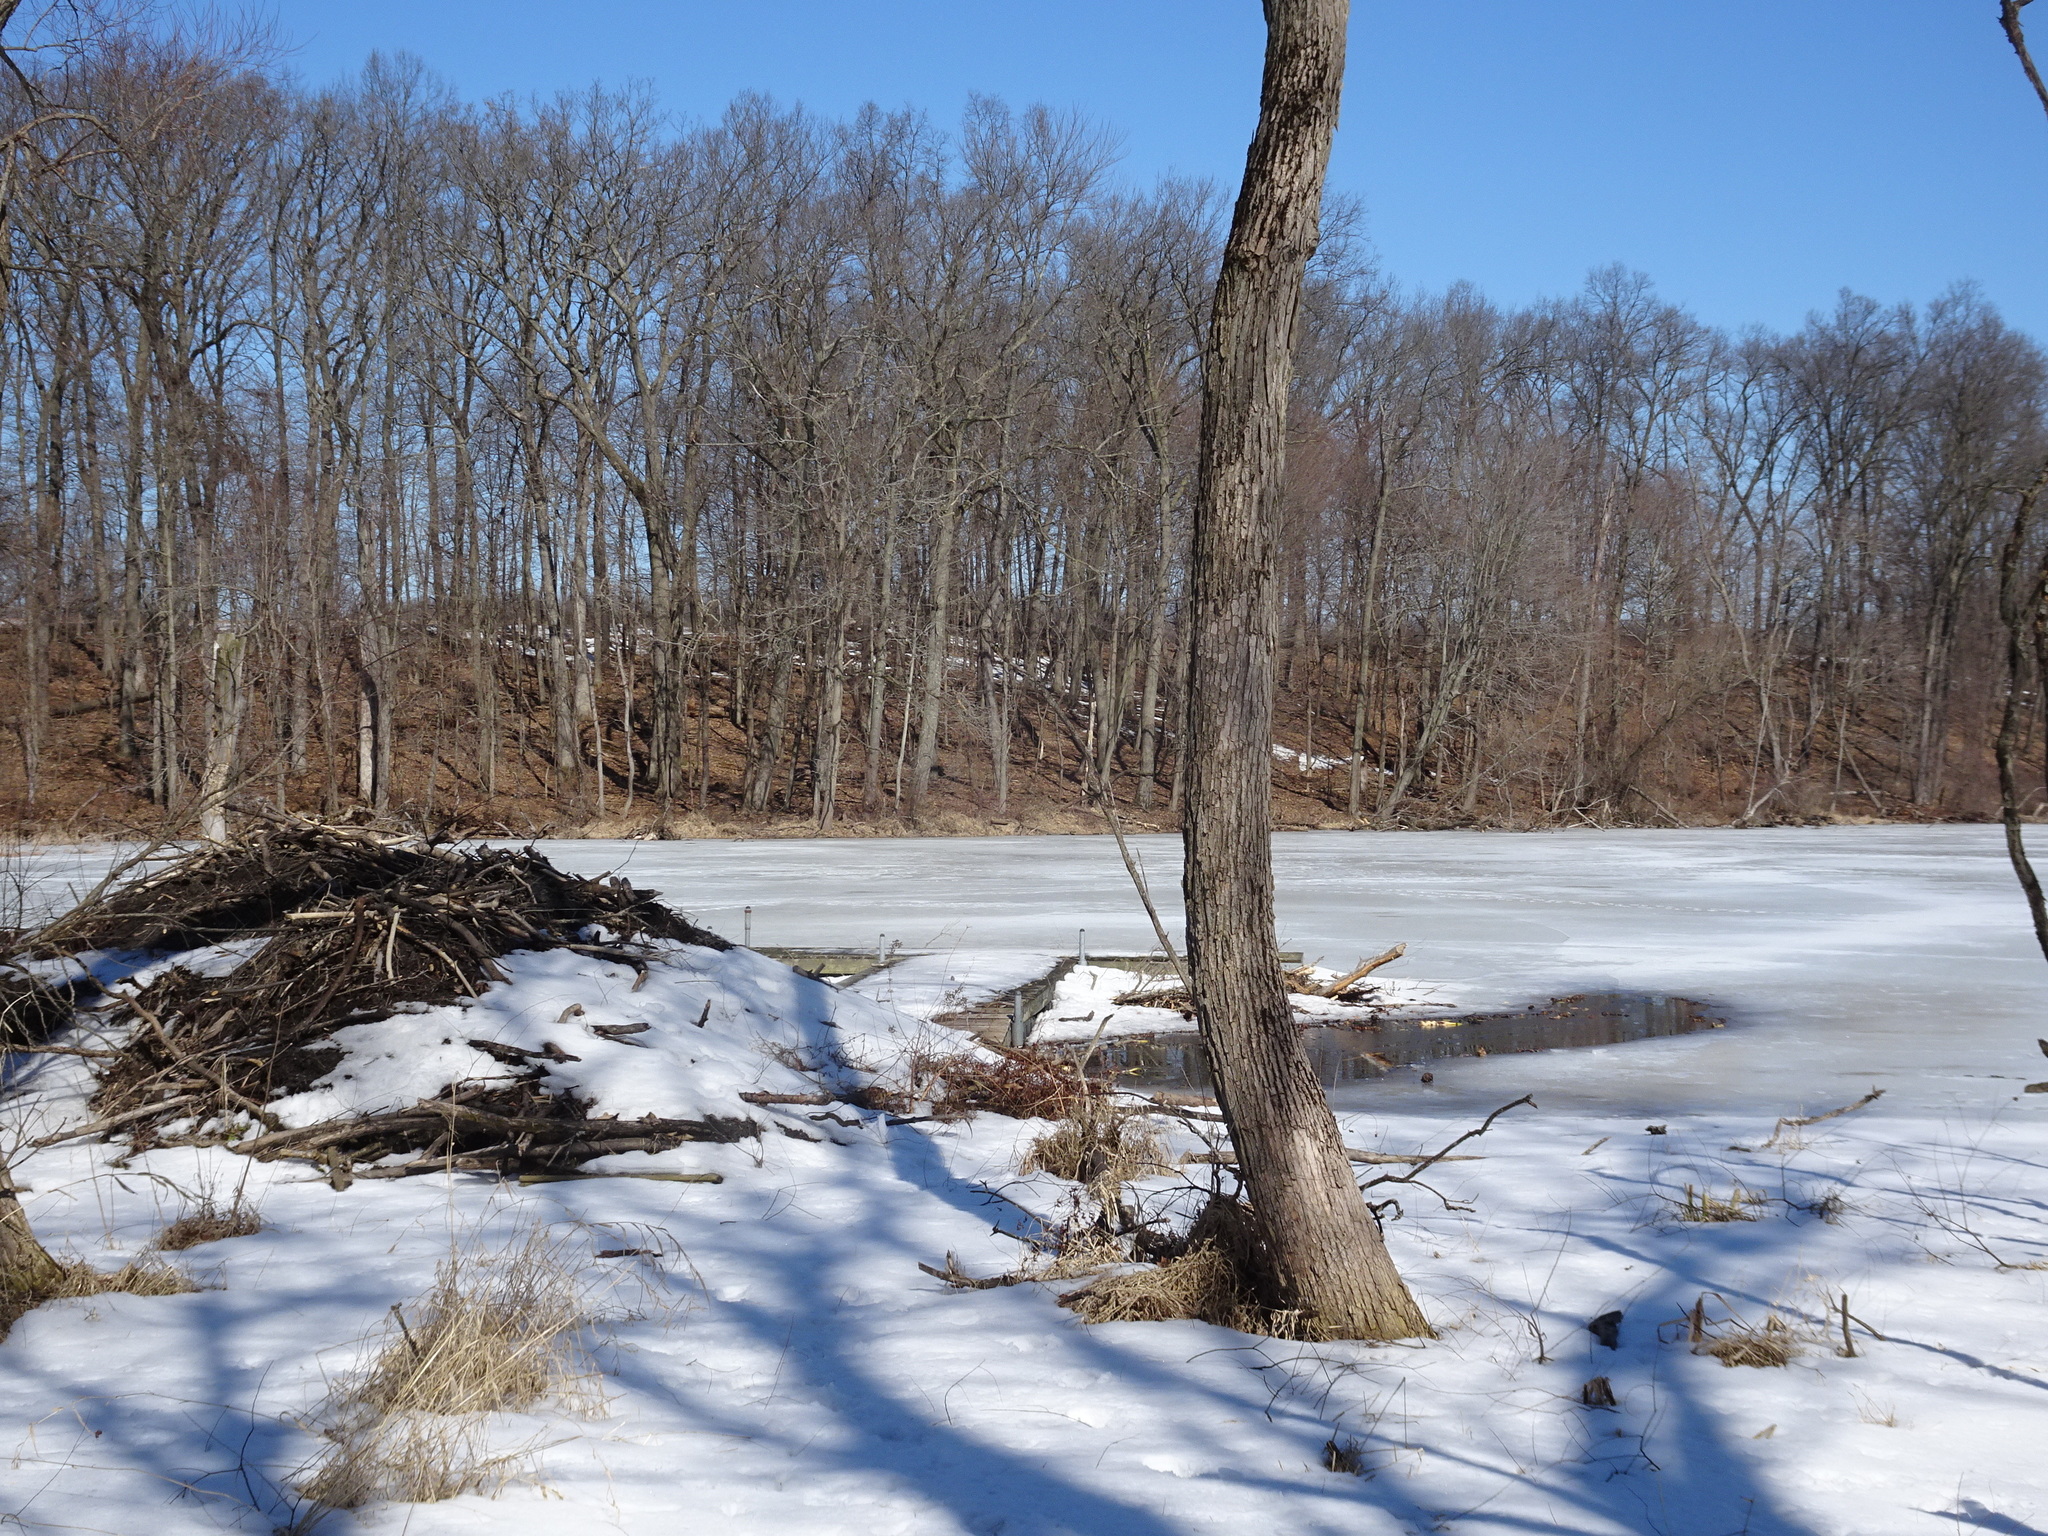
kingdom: Animalia
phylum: Chordata
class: Mammalia
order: Rodentia
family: Castoridae
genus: Castor
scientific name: Castor canadensis
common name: American beaver
